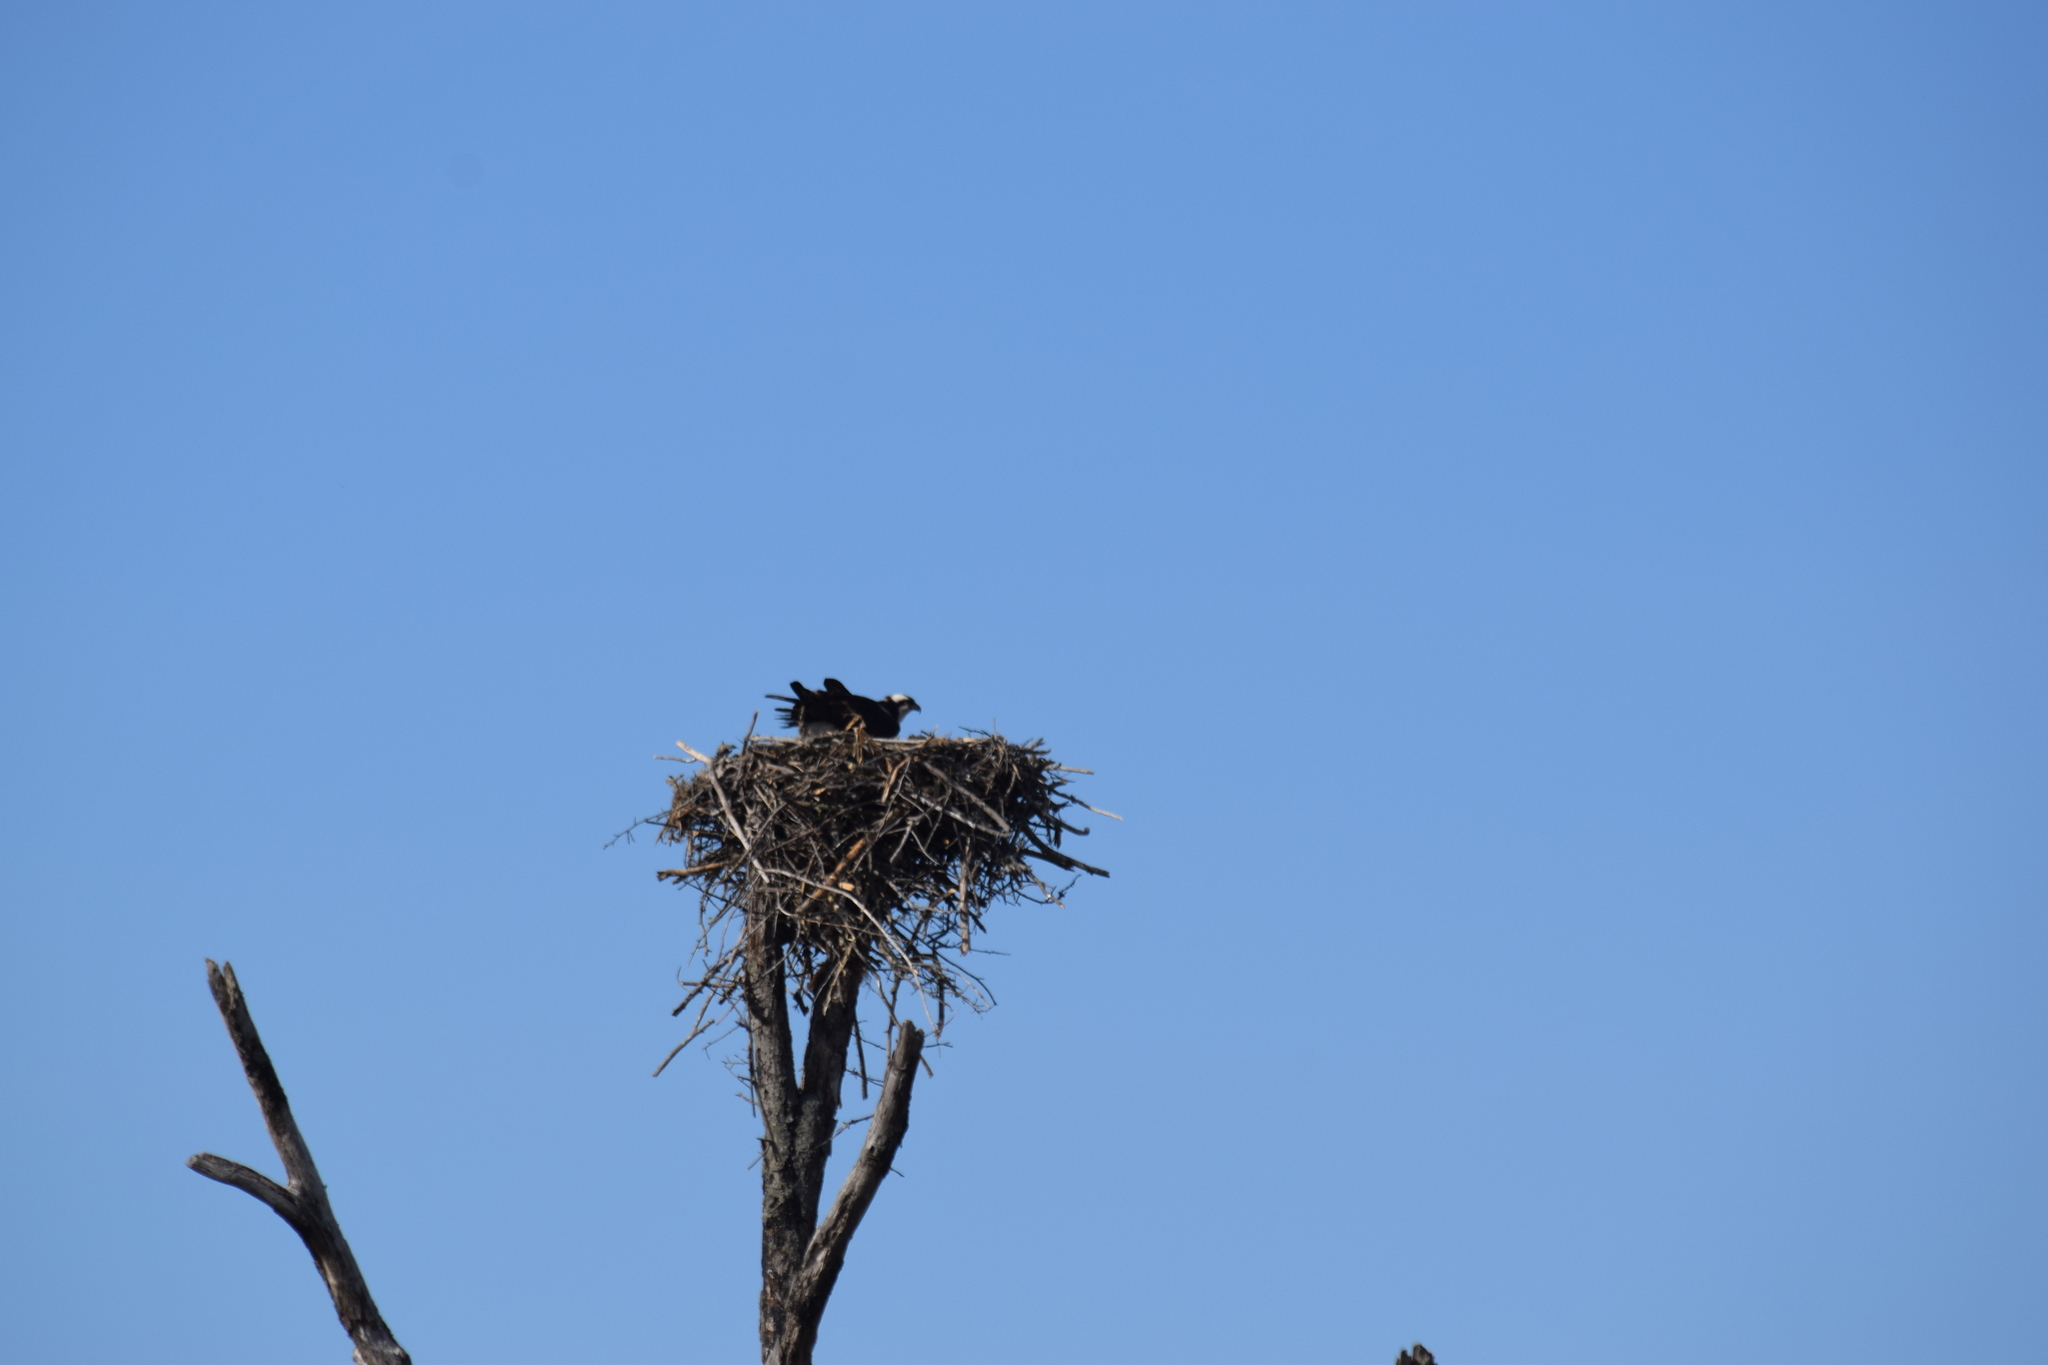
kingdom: Animalia
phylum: Chordata
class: Aves
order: Accipitriformes
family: Pandionidae
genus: Pandion
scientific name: Pandion haliaetus
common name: Osprey
